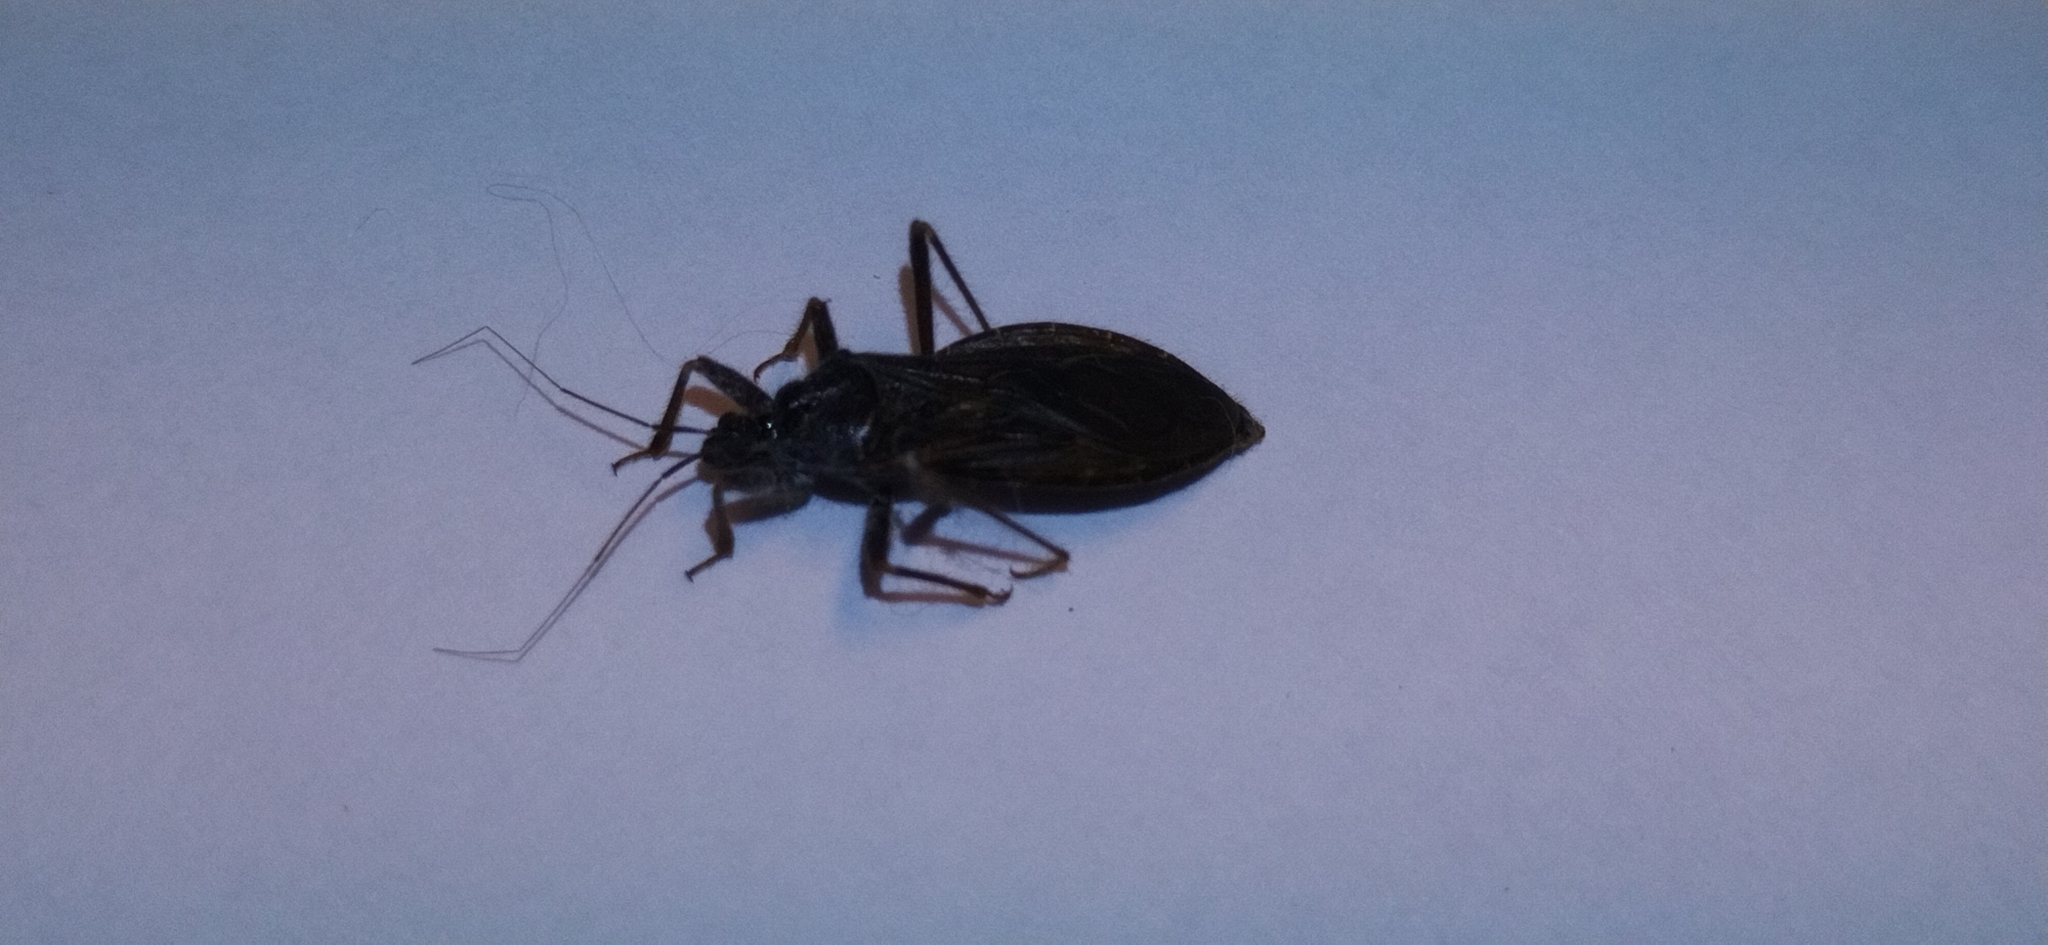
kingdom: Animalia
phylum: Arthropoda
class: Insecta
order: Hemiptera
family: Reduviidae
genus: Reduvius
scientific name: Reduvius personatus
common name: Masked hunter
